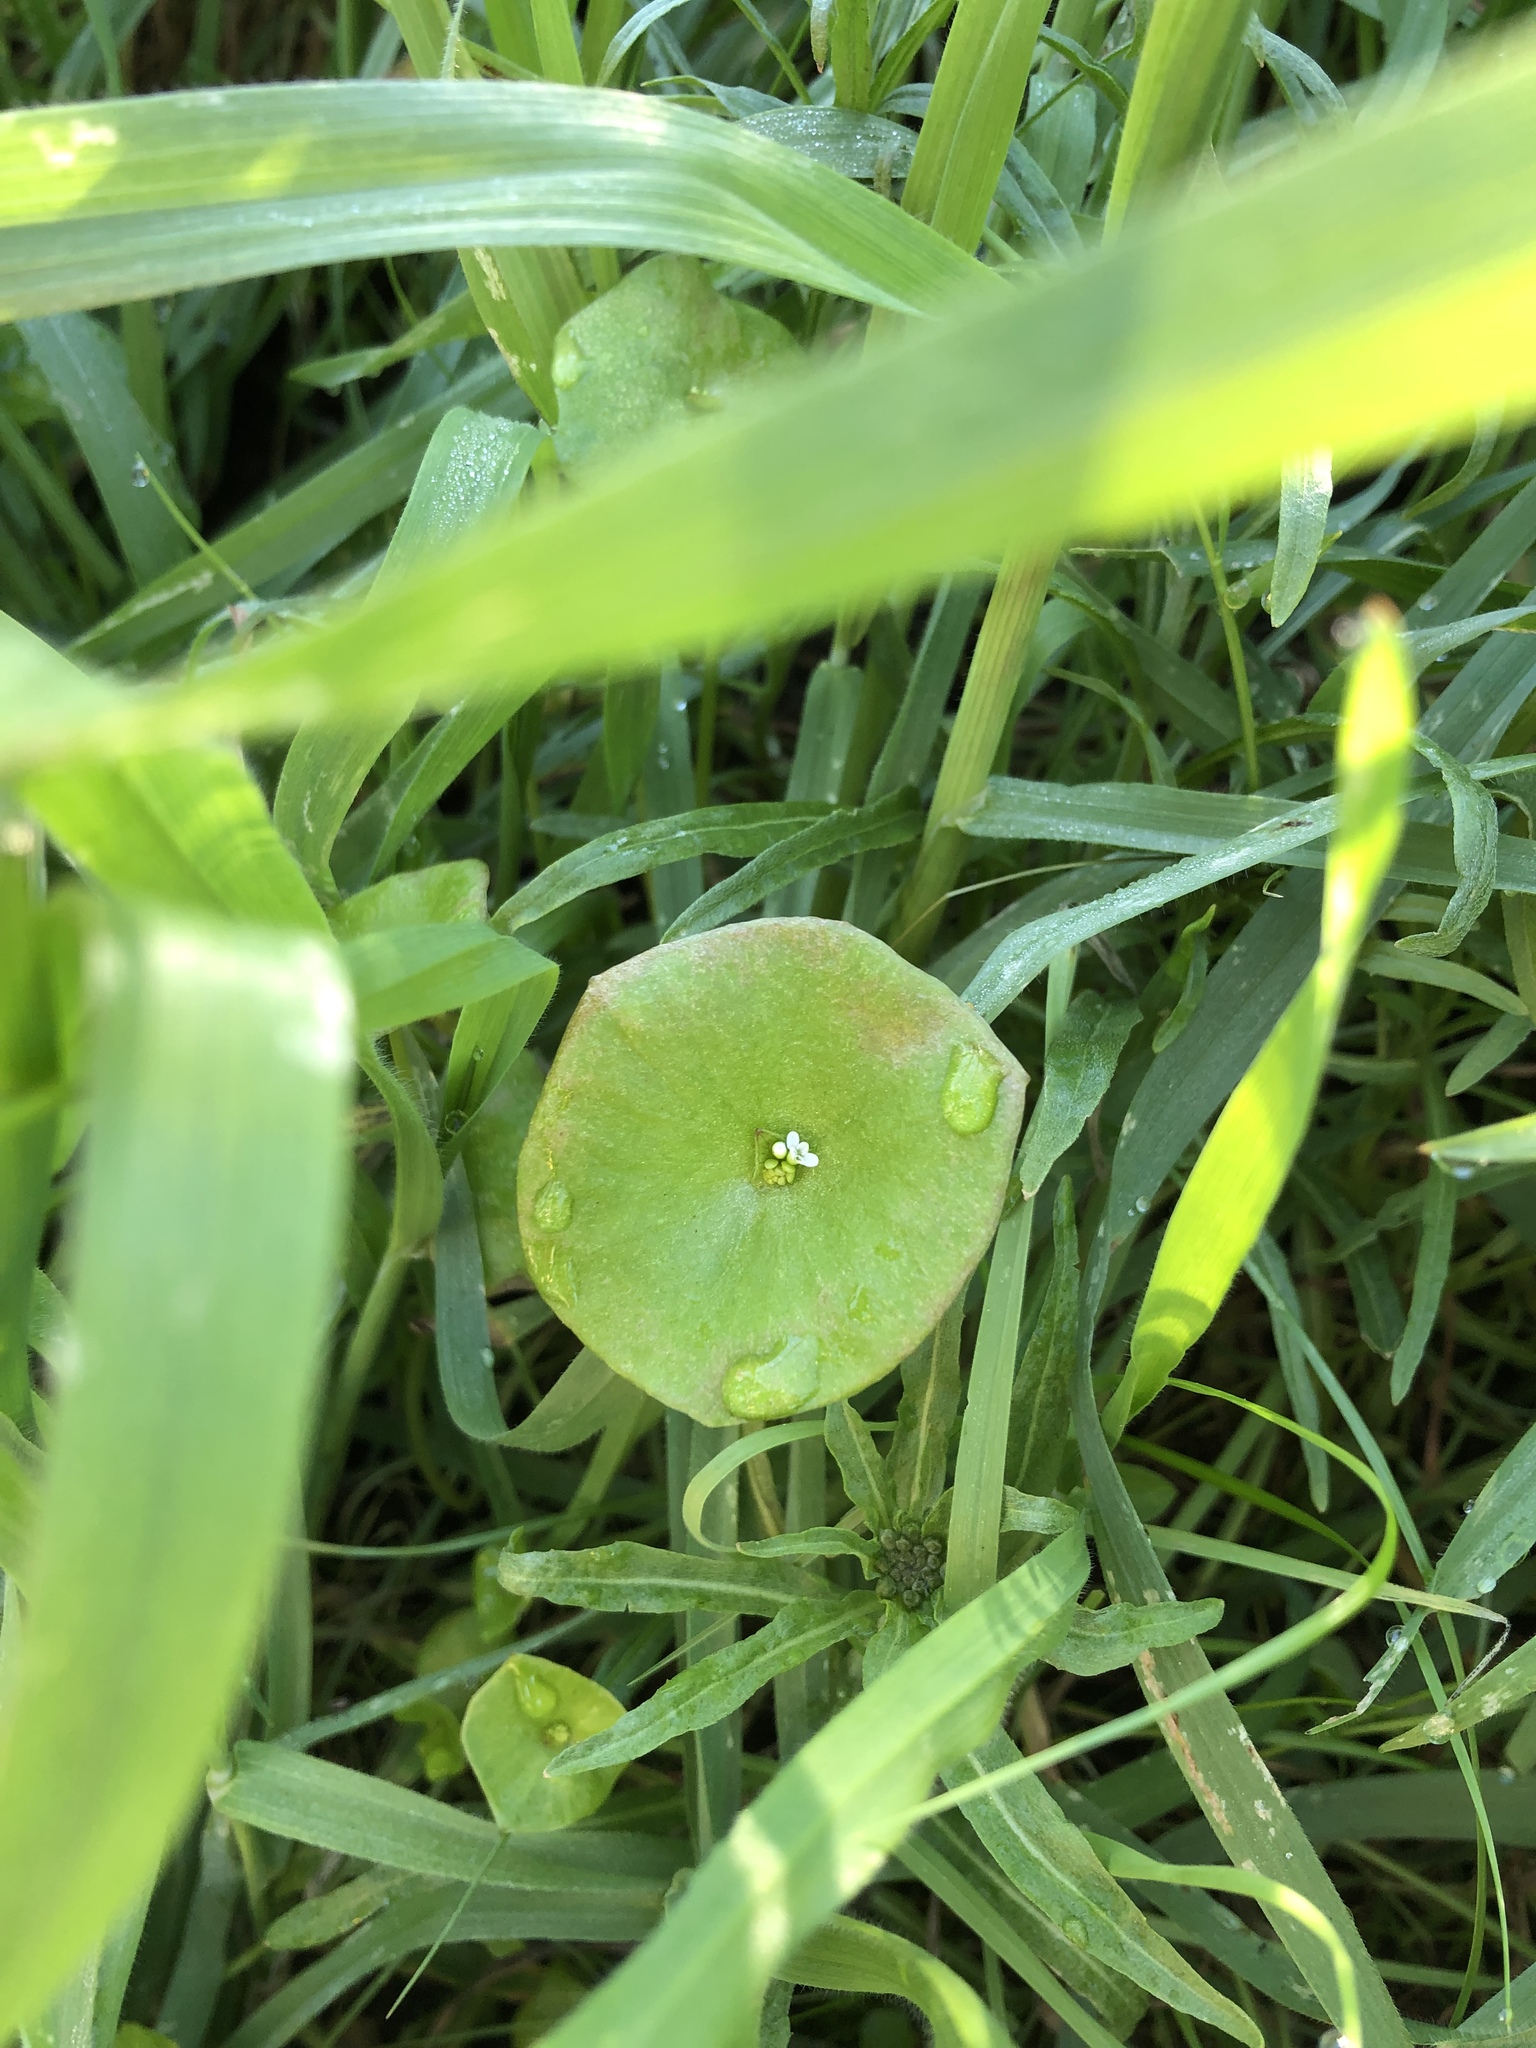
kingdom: Plantae
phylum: Tracheophyta
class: Magnoliopsida
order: Caryophyllales
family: Montiaceae
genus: Claytonia
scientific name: Claytonia perfoliata
